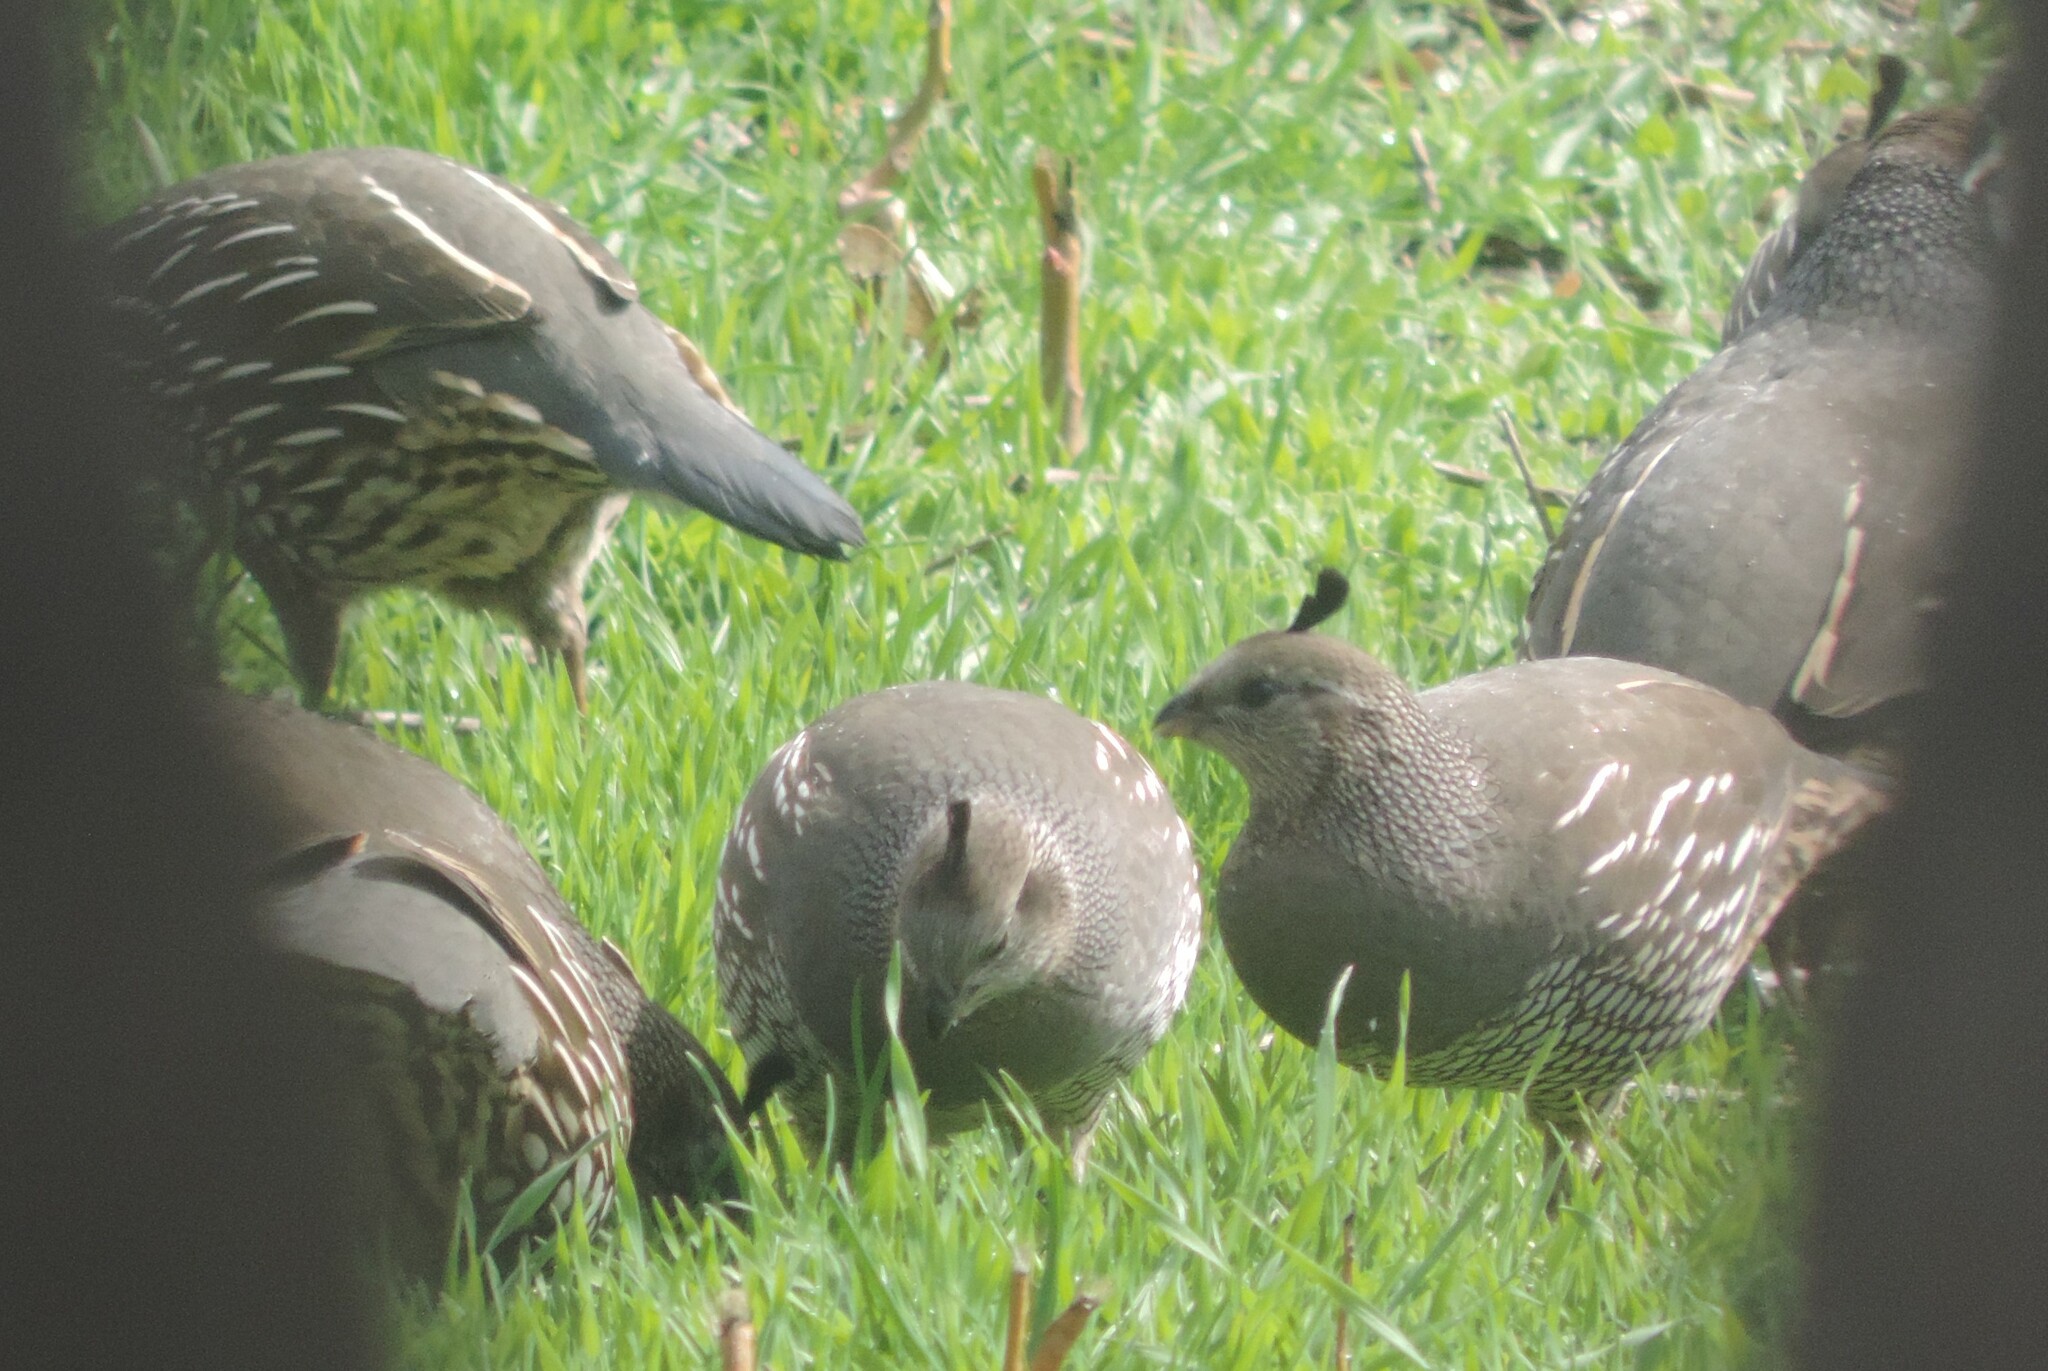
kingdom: Animalia
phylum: Chordata
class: Aves
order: Galliformes
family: Odontophoridae
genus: Callipepla
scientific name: Callipepla californica
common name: California quail
